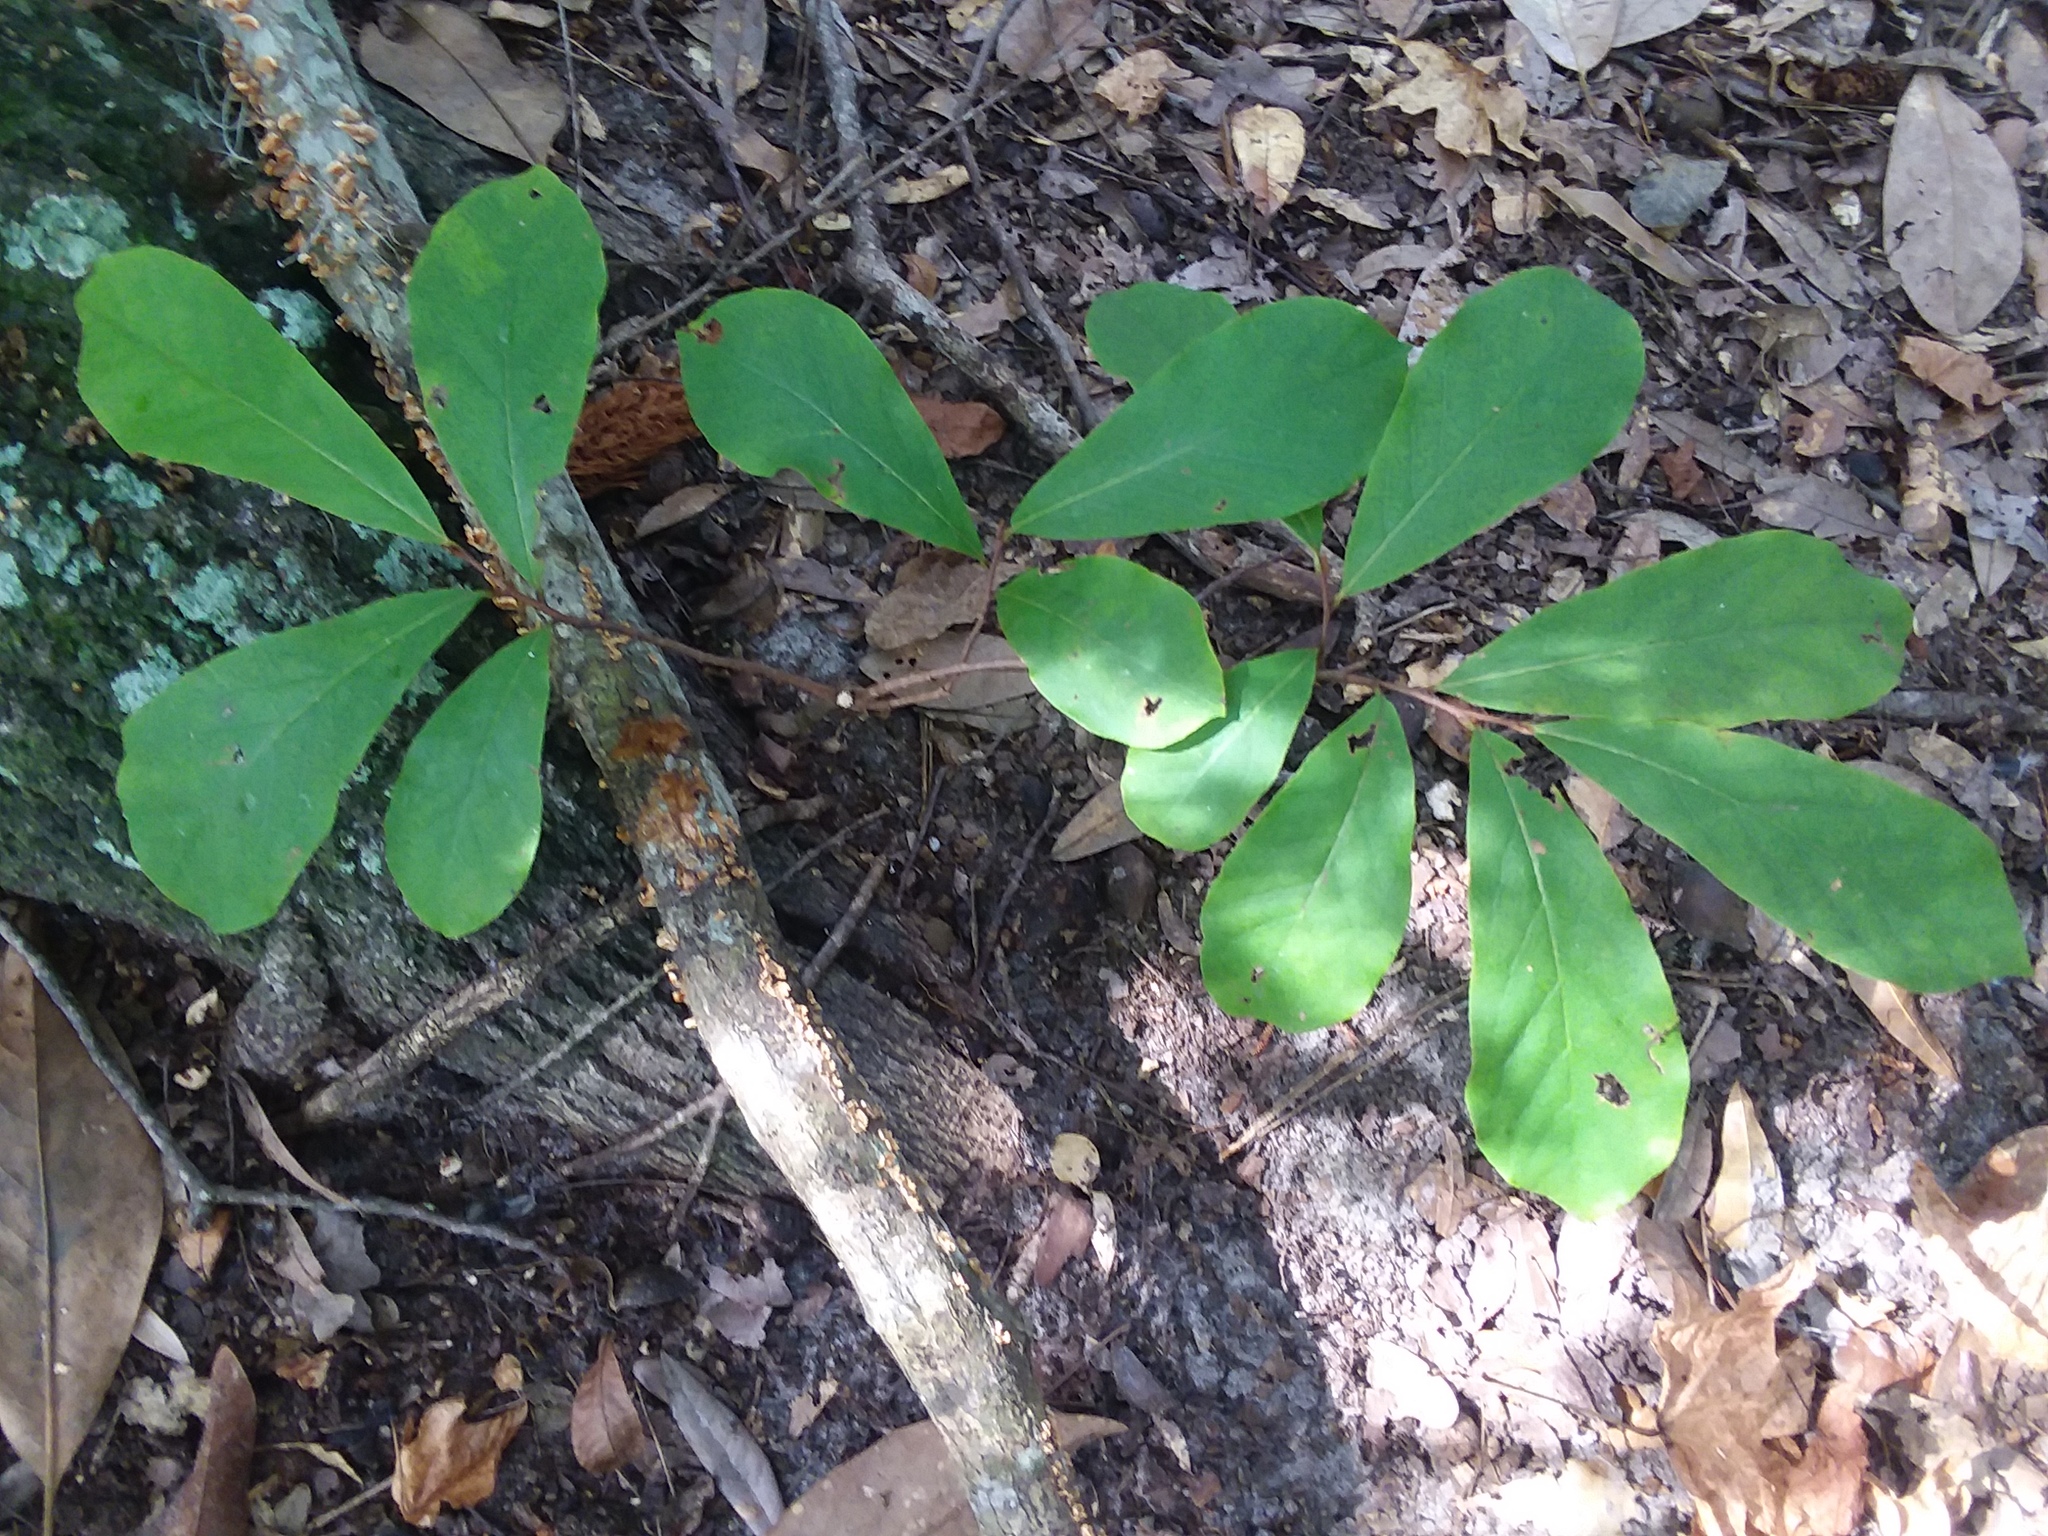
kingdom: Plantae
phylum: Tracheophyta
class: Magnoliopsida
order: Magnoliales
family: Annonaceae
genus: Asimina
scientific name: Asimina parviflora
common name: Dwarf pawpaw
